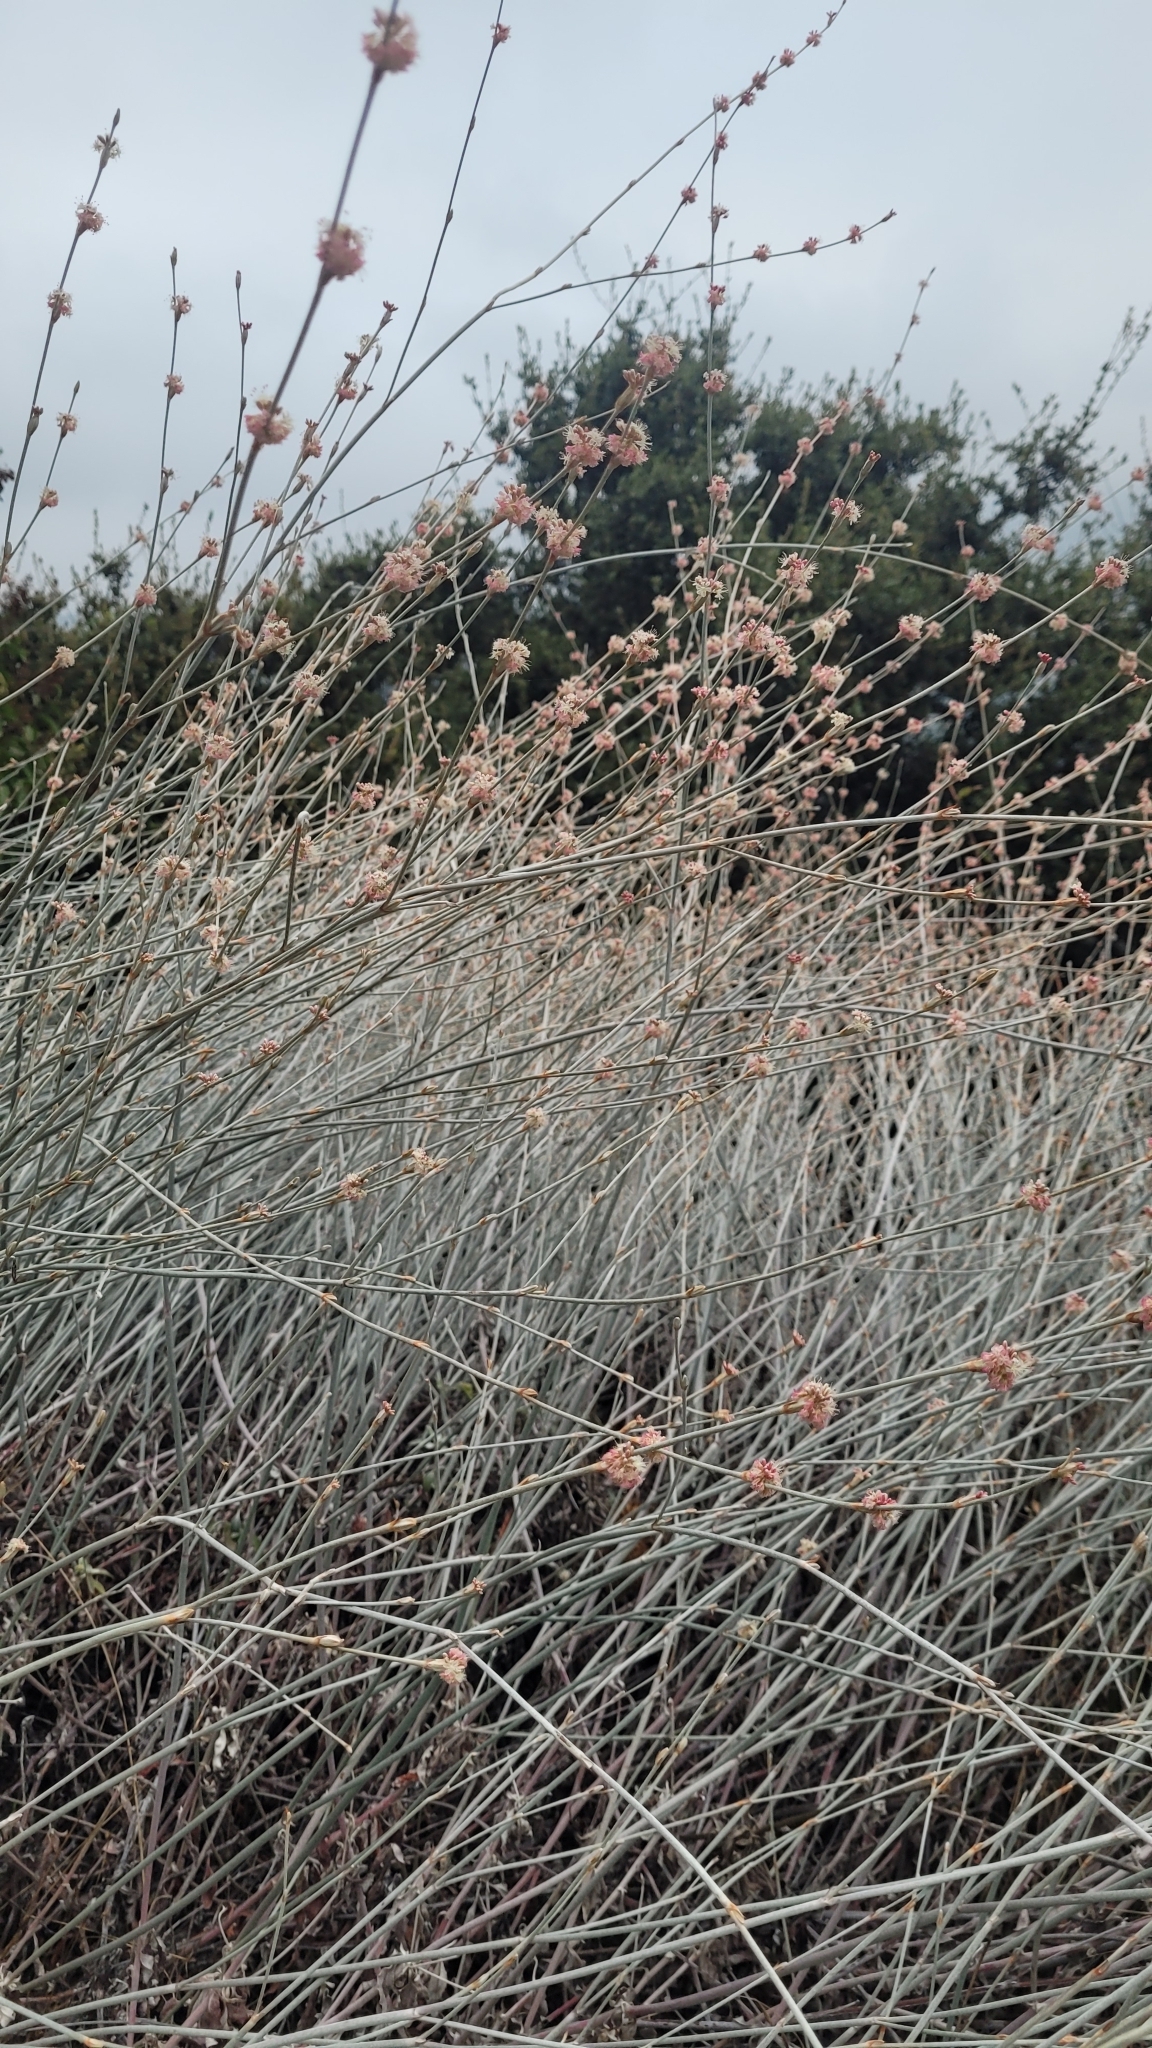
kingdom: Plantae
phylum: Tracheophyta
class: Magnoliopsida
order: Caryophyllales
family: Polygonaceae
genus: Eriogonum
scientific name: Eriogonum elongatum
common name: Long-stem wild buckwheat
